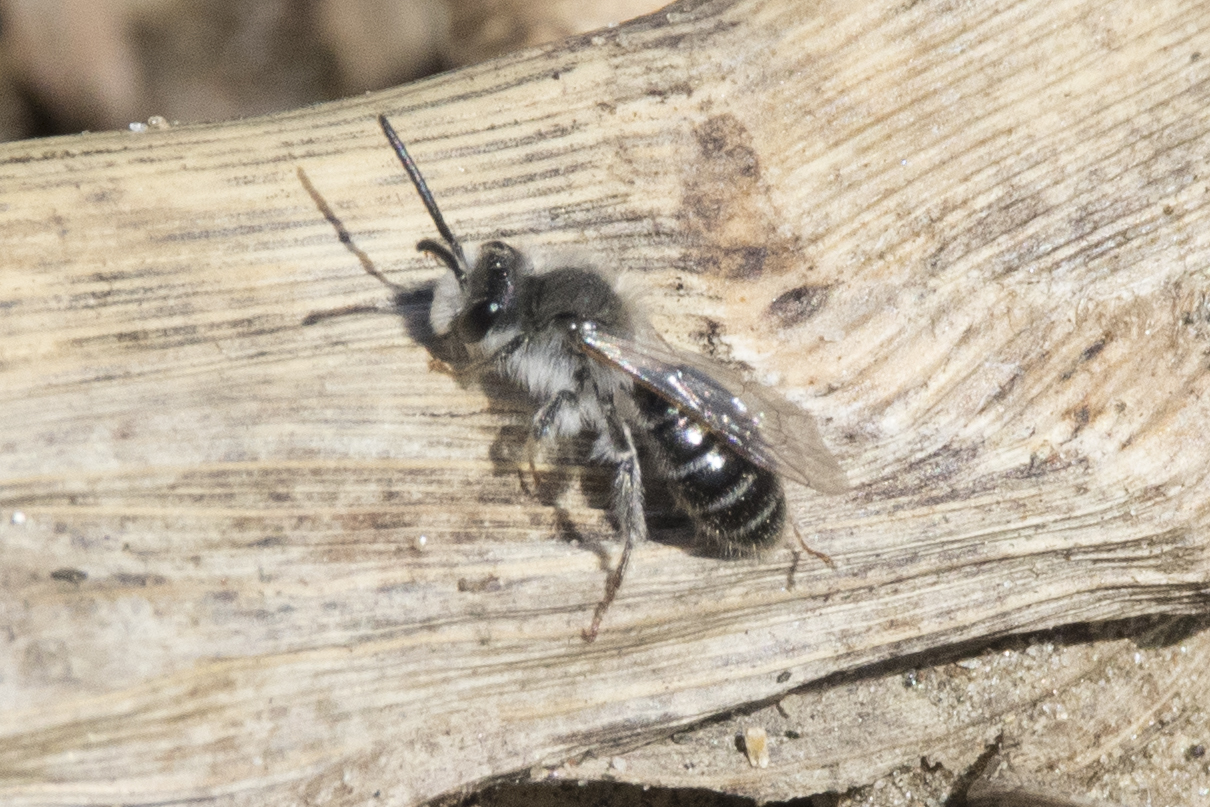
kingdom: Animalia
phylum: Arthropoda
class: Insecta
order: Hymenoptera
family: Andrenidae
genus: Andrena
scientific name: Andrena
